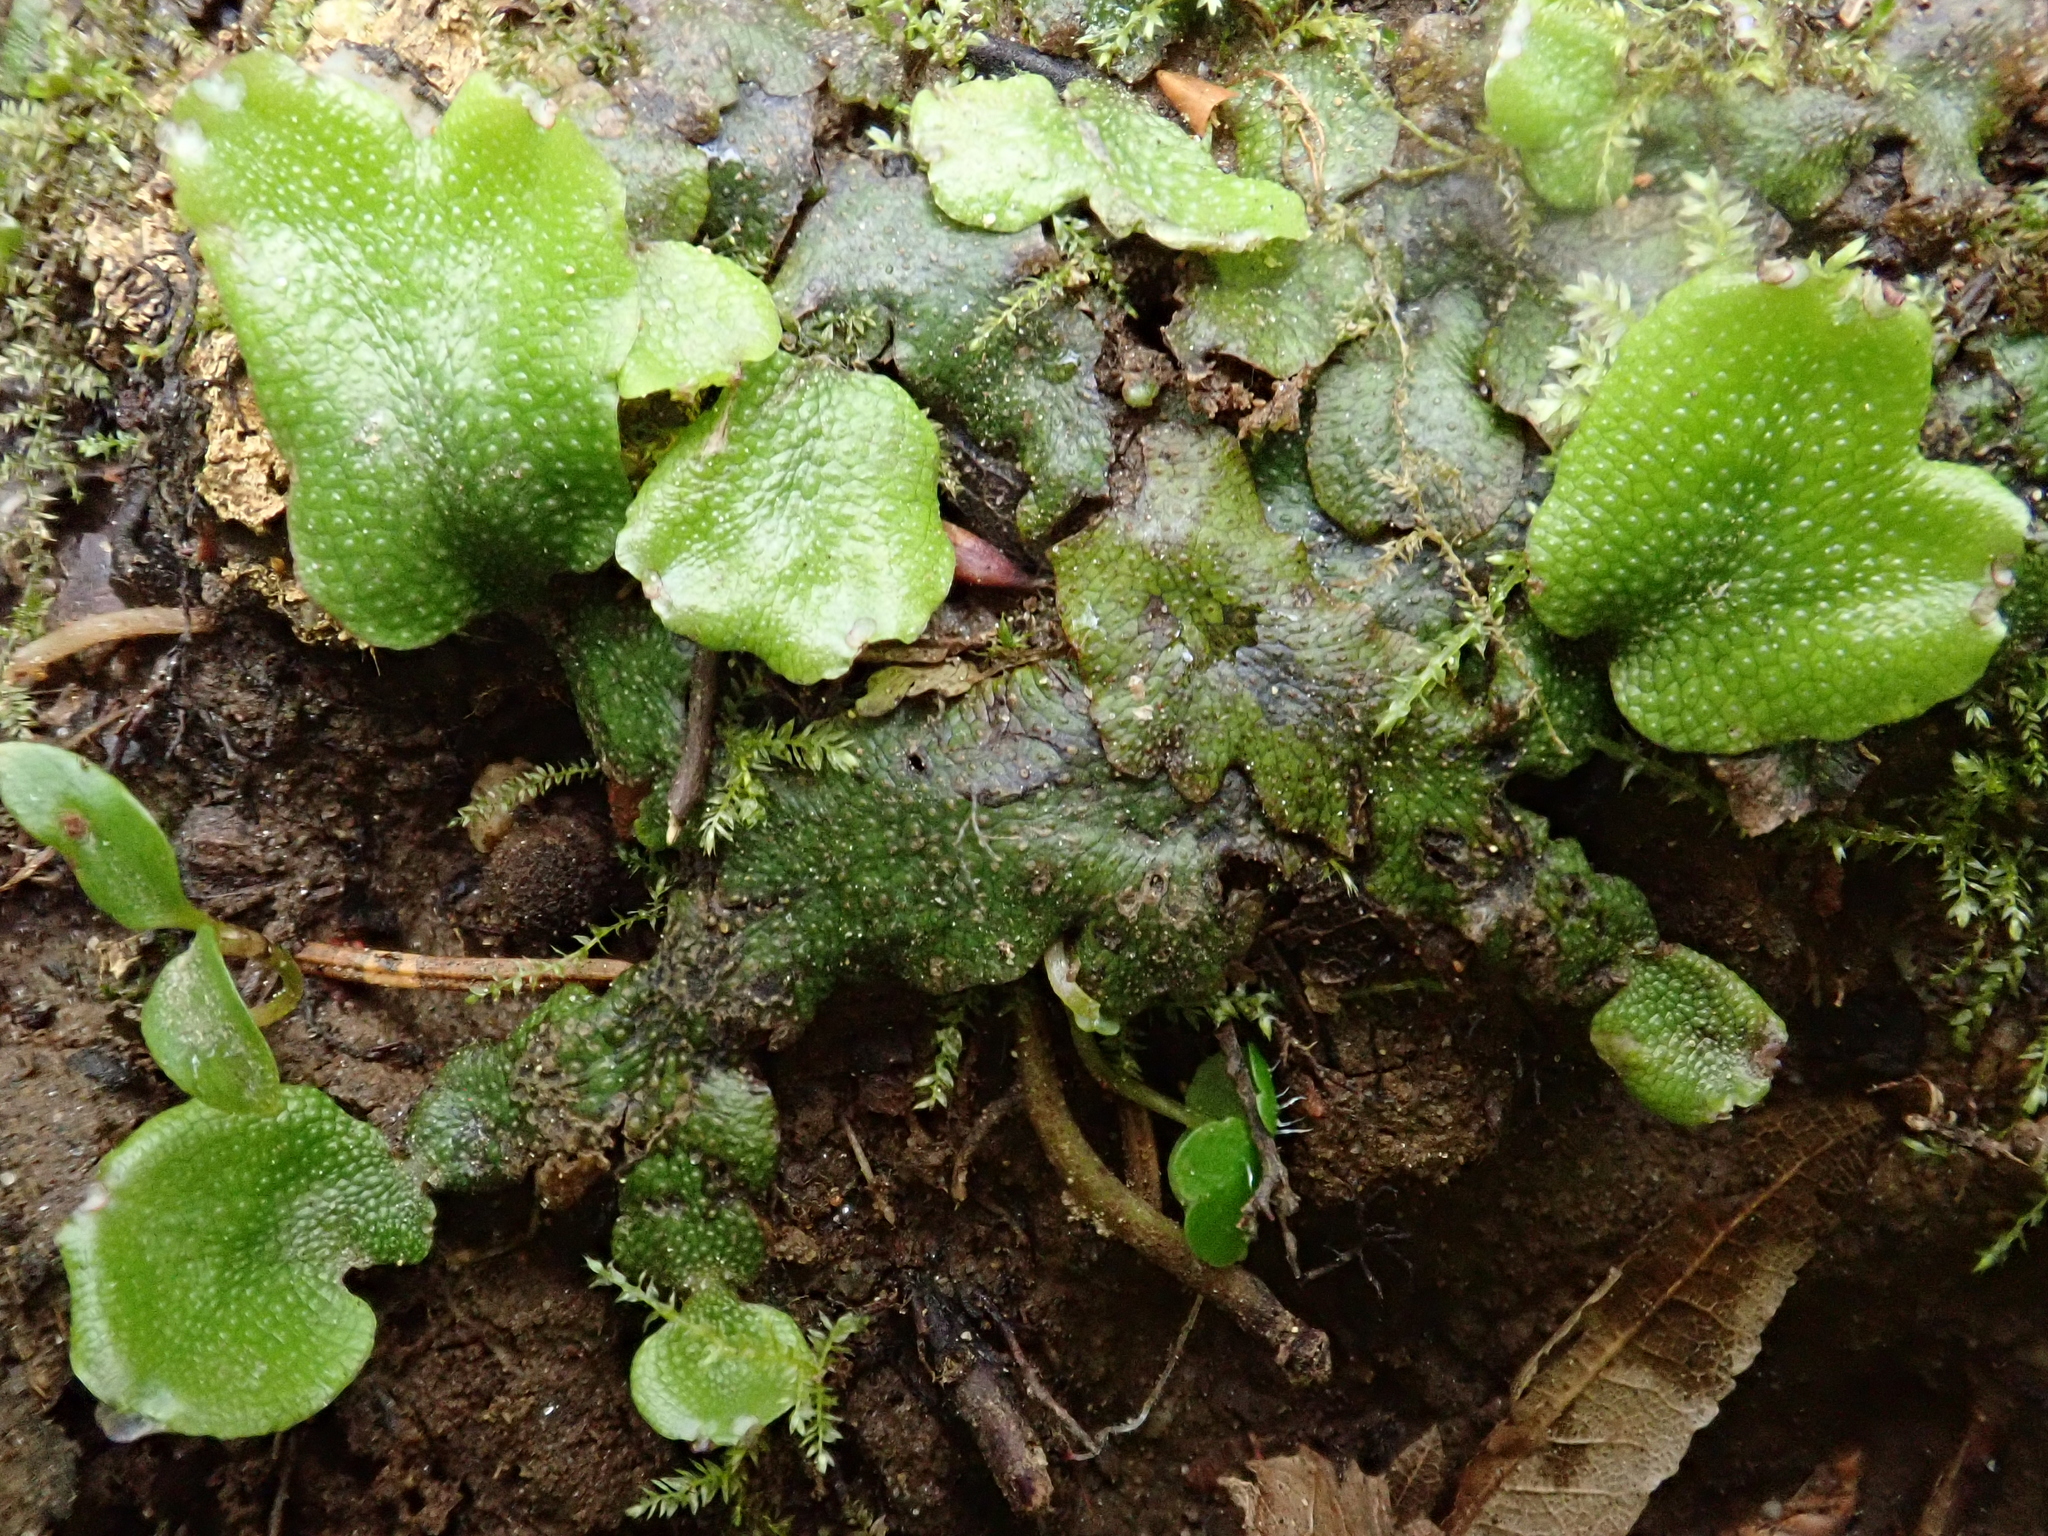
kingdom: Plantae
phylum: Marchantiophyta
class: Marchantiopsida
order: Marchantiales
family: Conocephalaceae
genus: Conocephalum
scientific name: Conocephalum conicum
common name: Great scented liverwort
